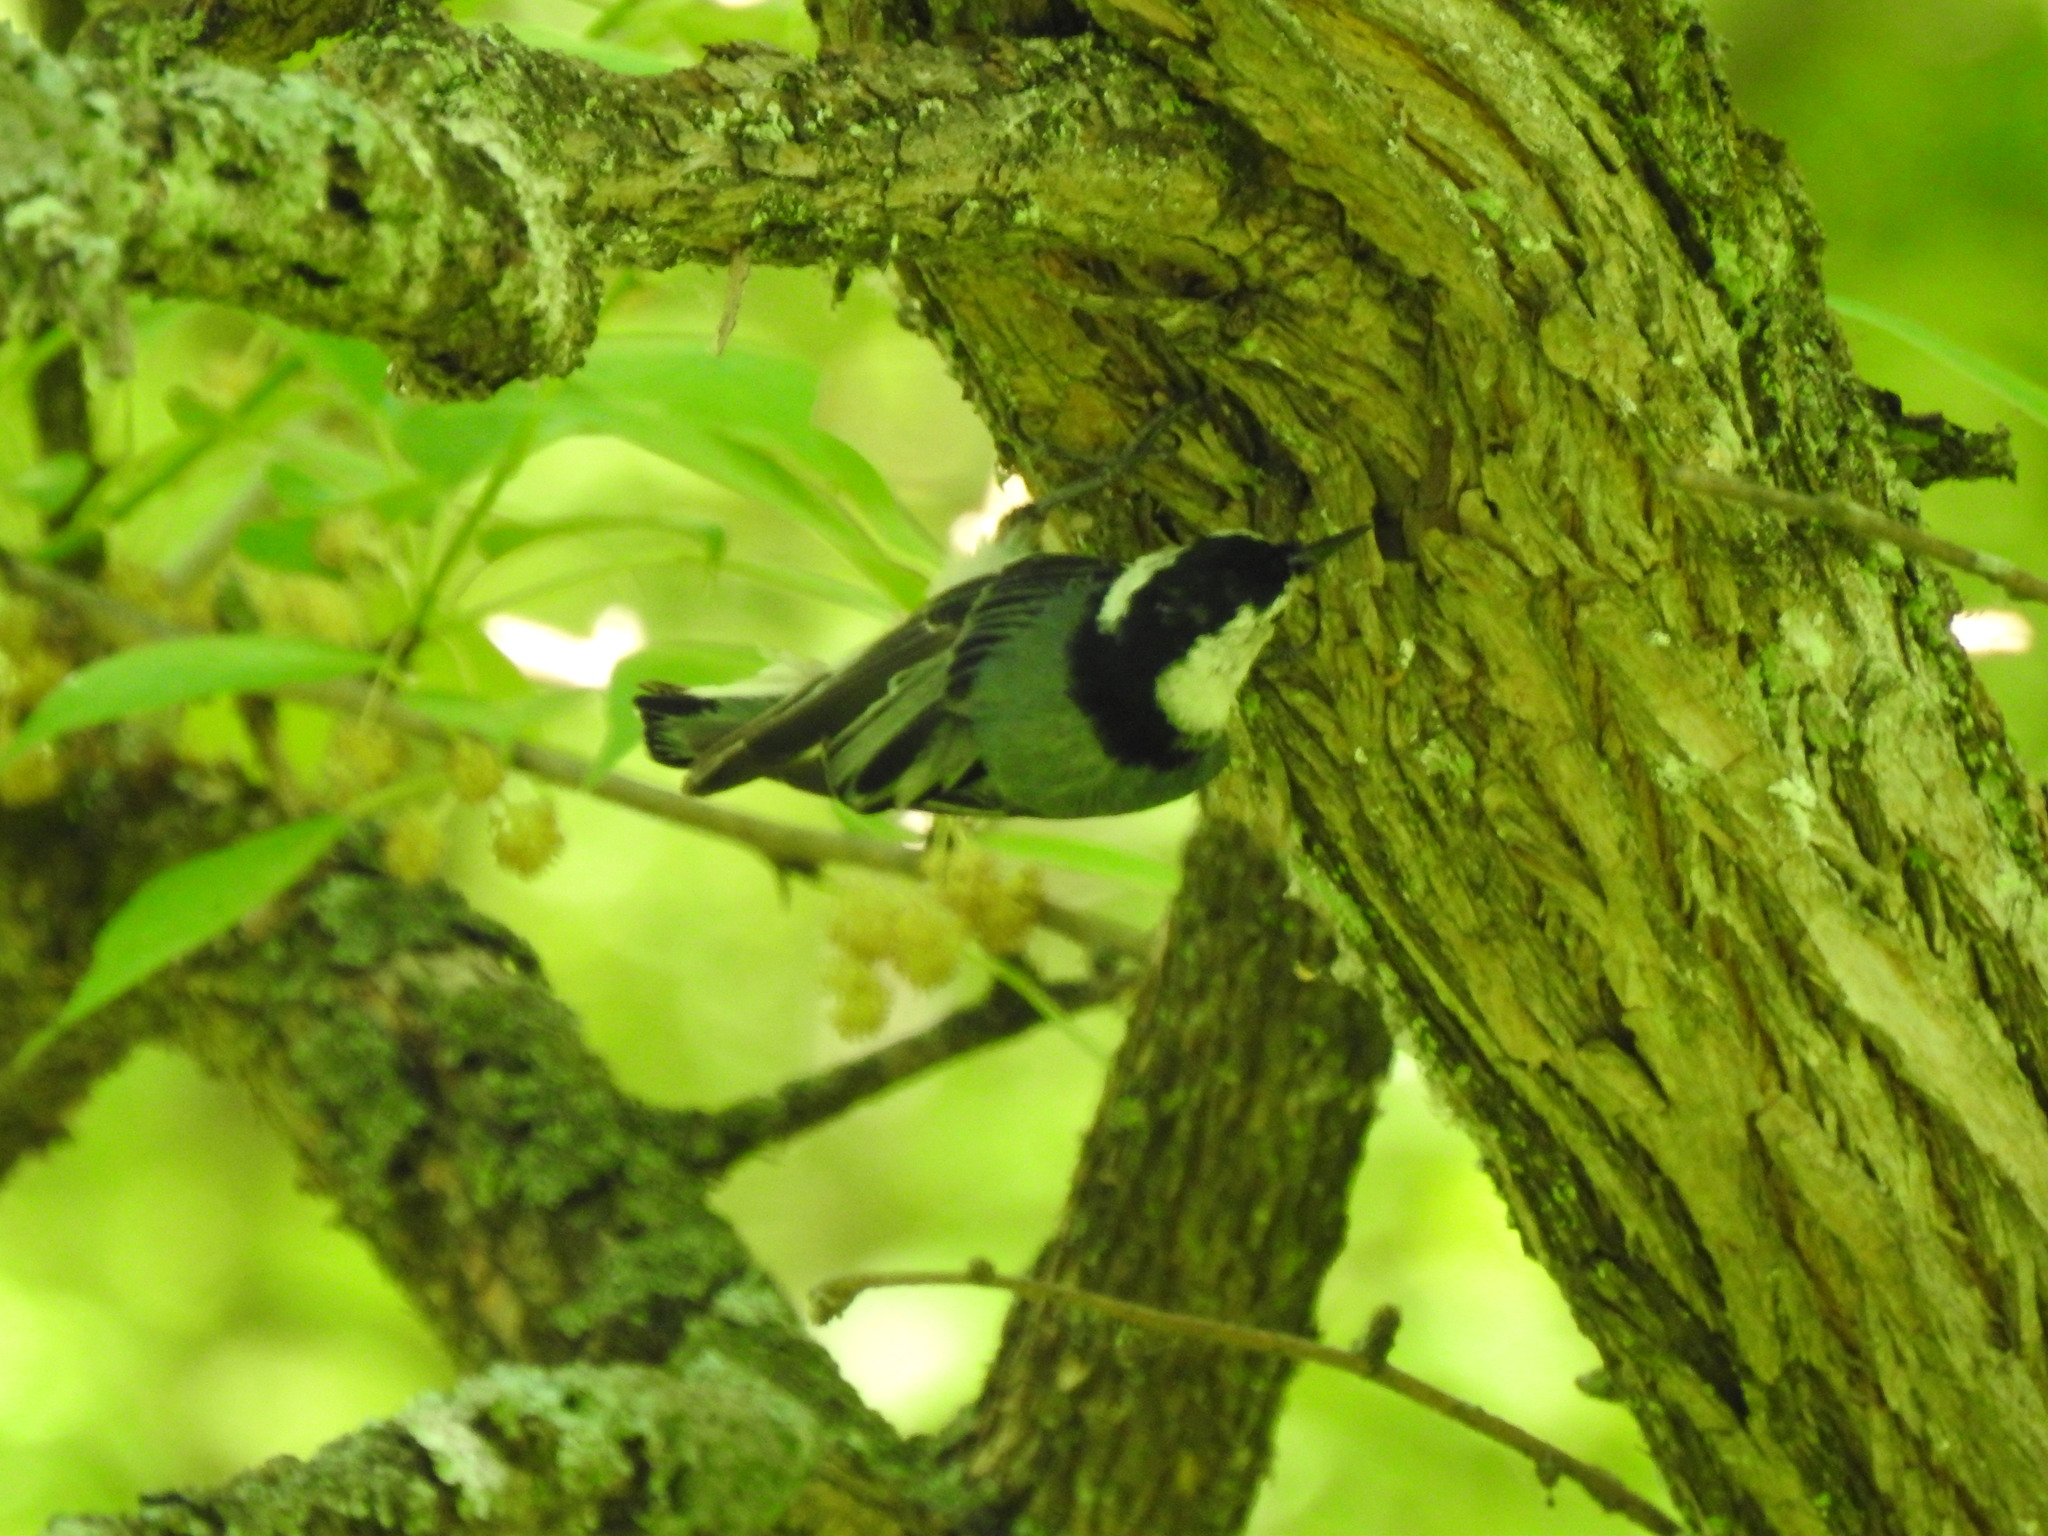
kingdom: Animalia
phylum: Chordata
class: Aves
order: Passeriformes
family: Sittidae
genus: Sitta
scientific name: Sitta carolinensis
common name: White-breasted nuthatch
